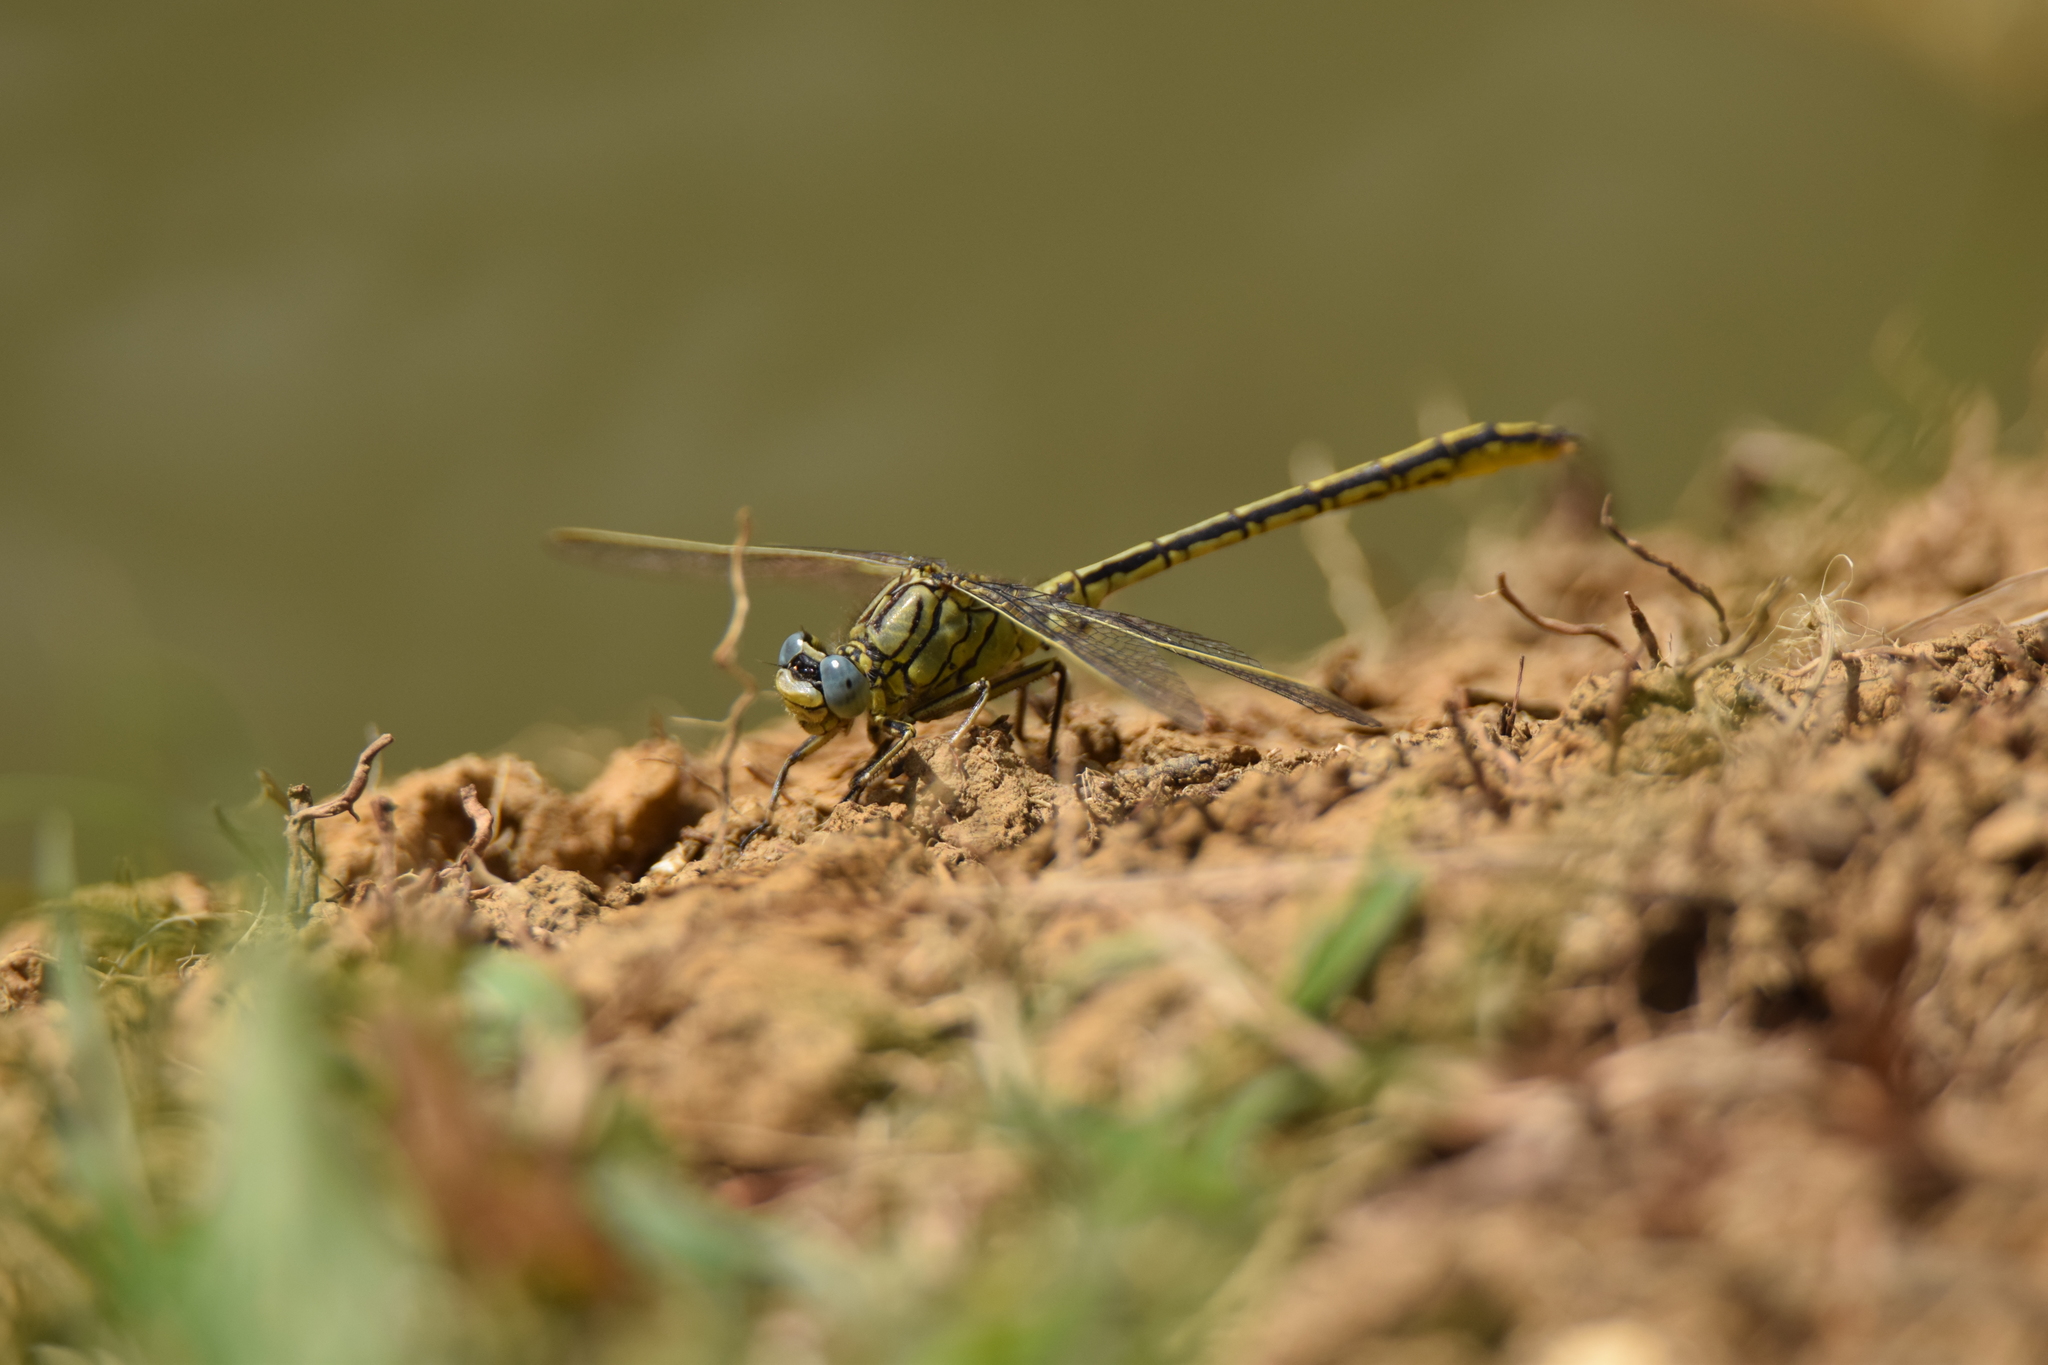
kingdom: Animalia
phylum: Arthropoda
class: Insecta
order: Odonata
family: Gomphidae
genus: Gomphus
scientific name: Gomphus pulchellus
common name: Western clubtail
